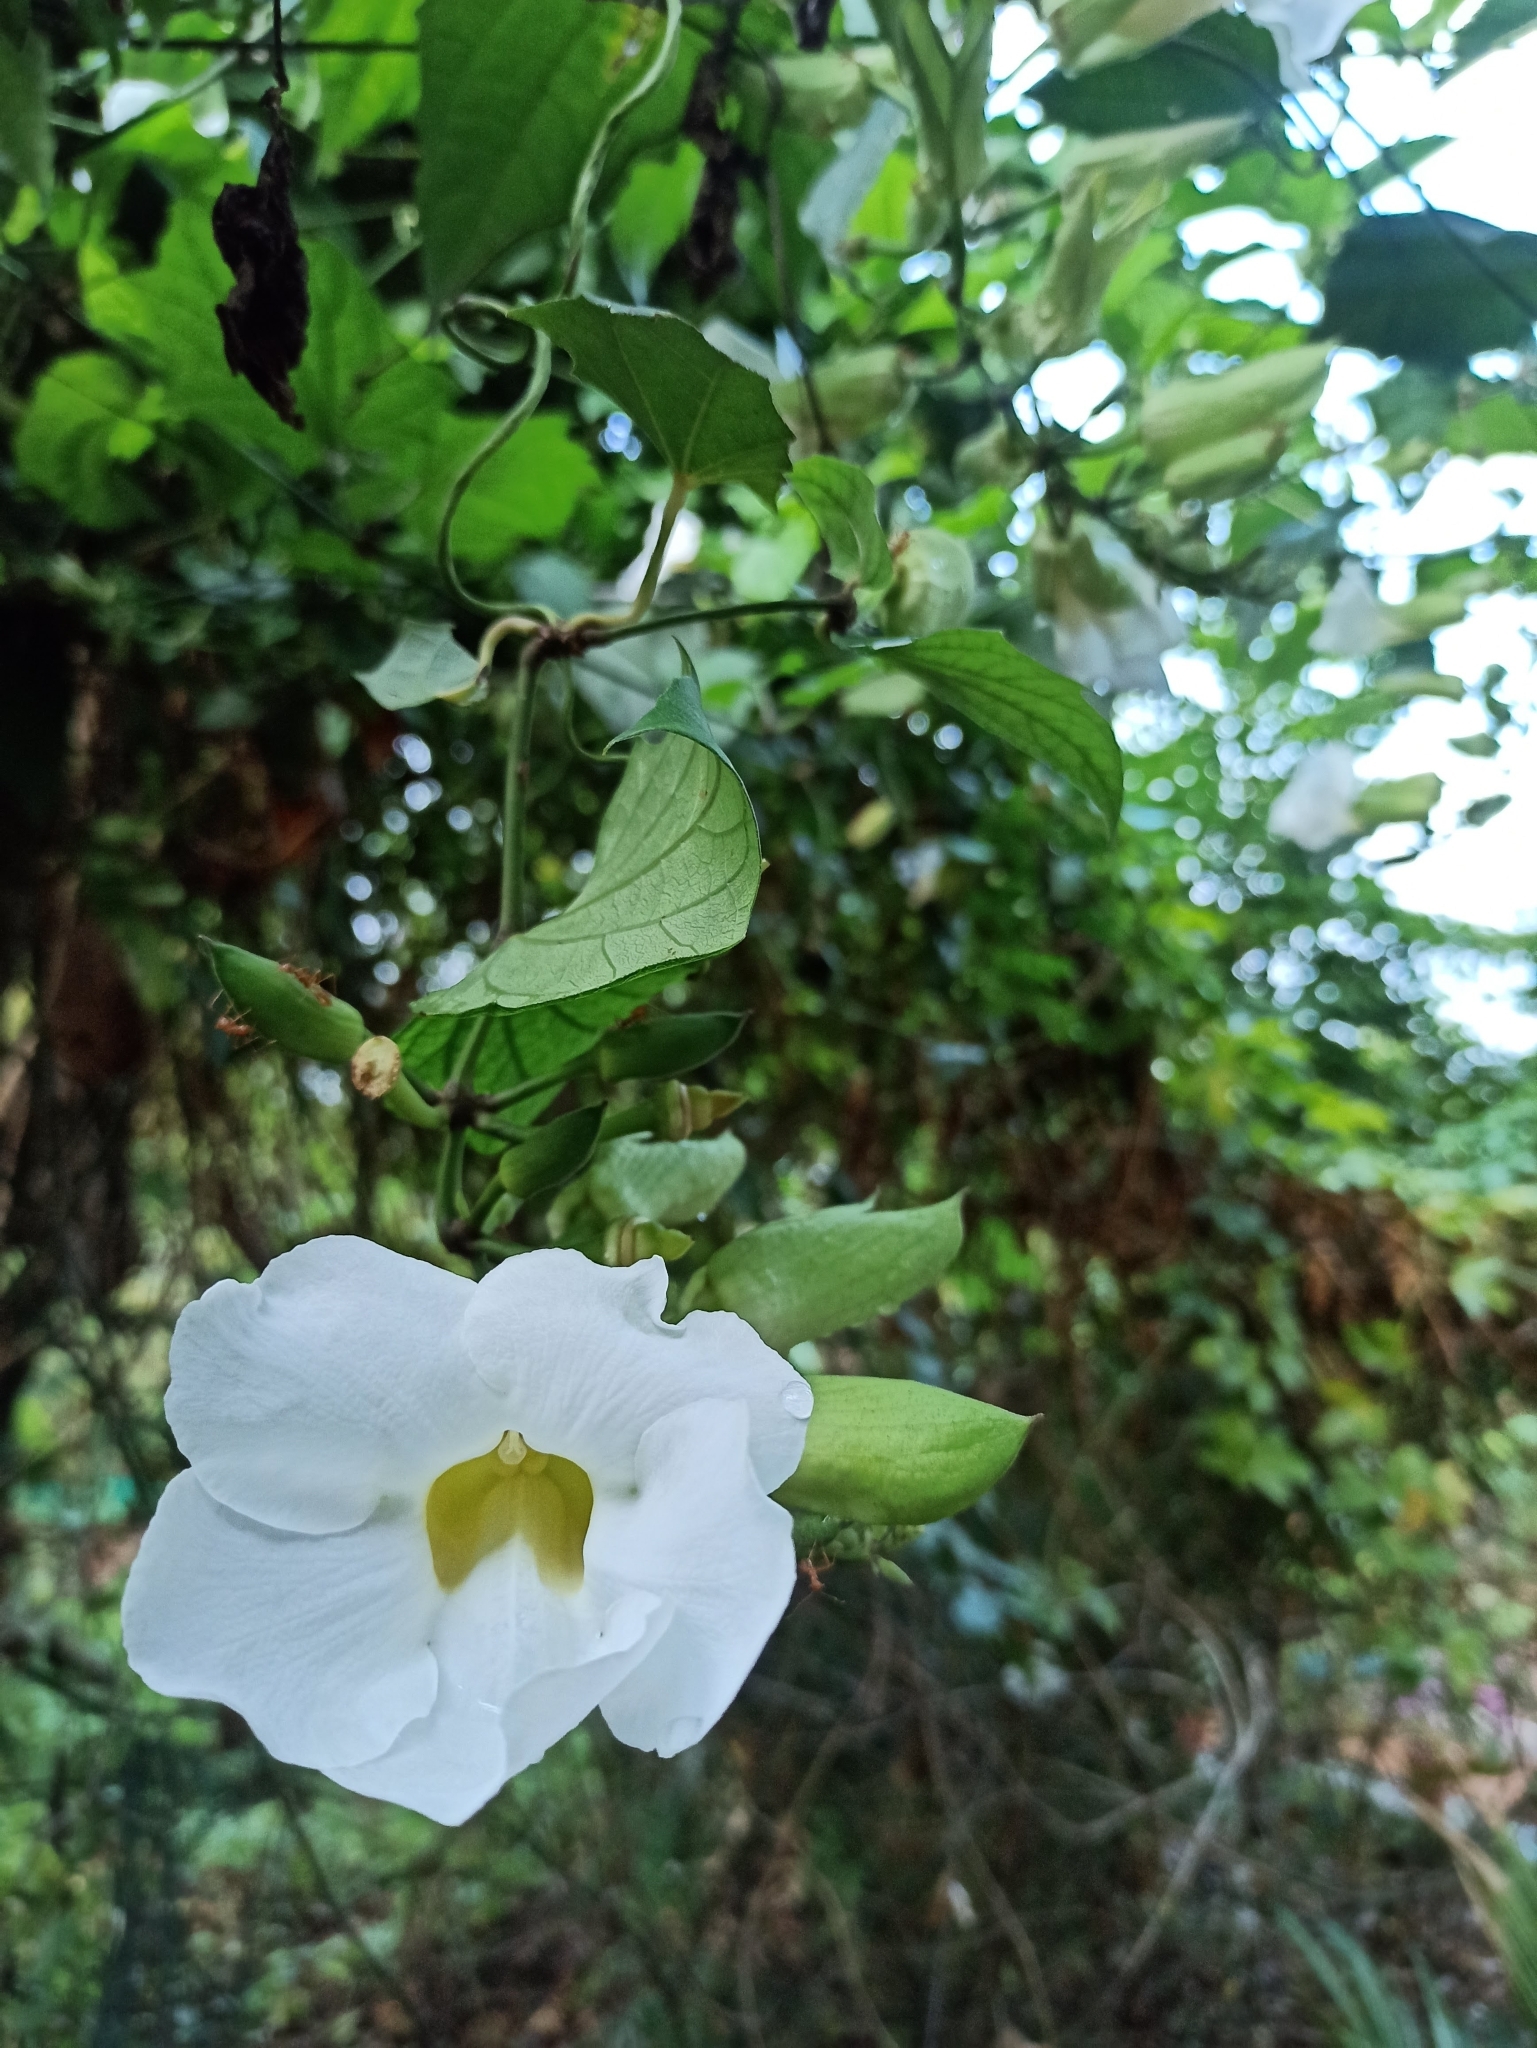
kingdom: Plantae
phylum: Tracheophyta
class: Magnoliopsida
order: Lamiales
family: Acanthaceae
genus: Thunbergia
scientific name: Thunbergia grandiflora
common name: Bengal trumpet
